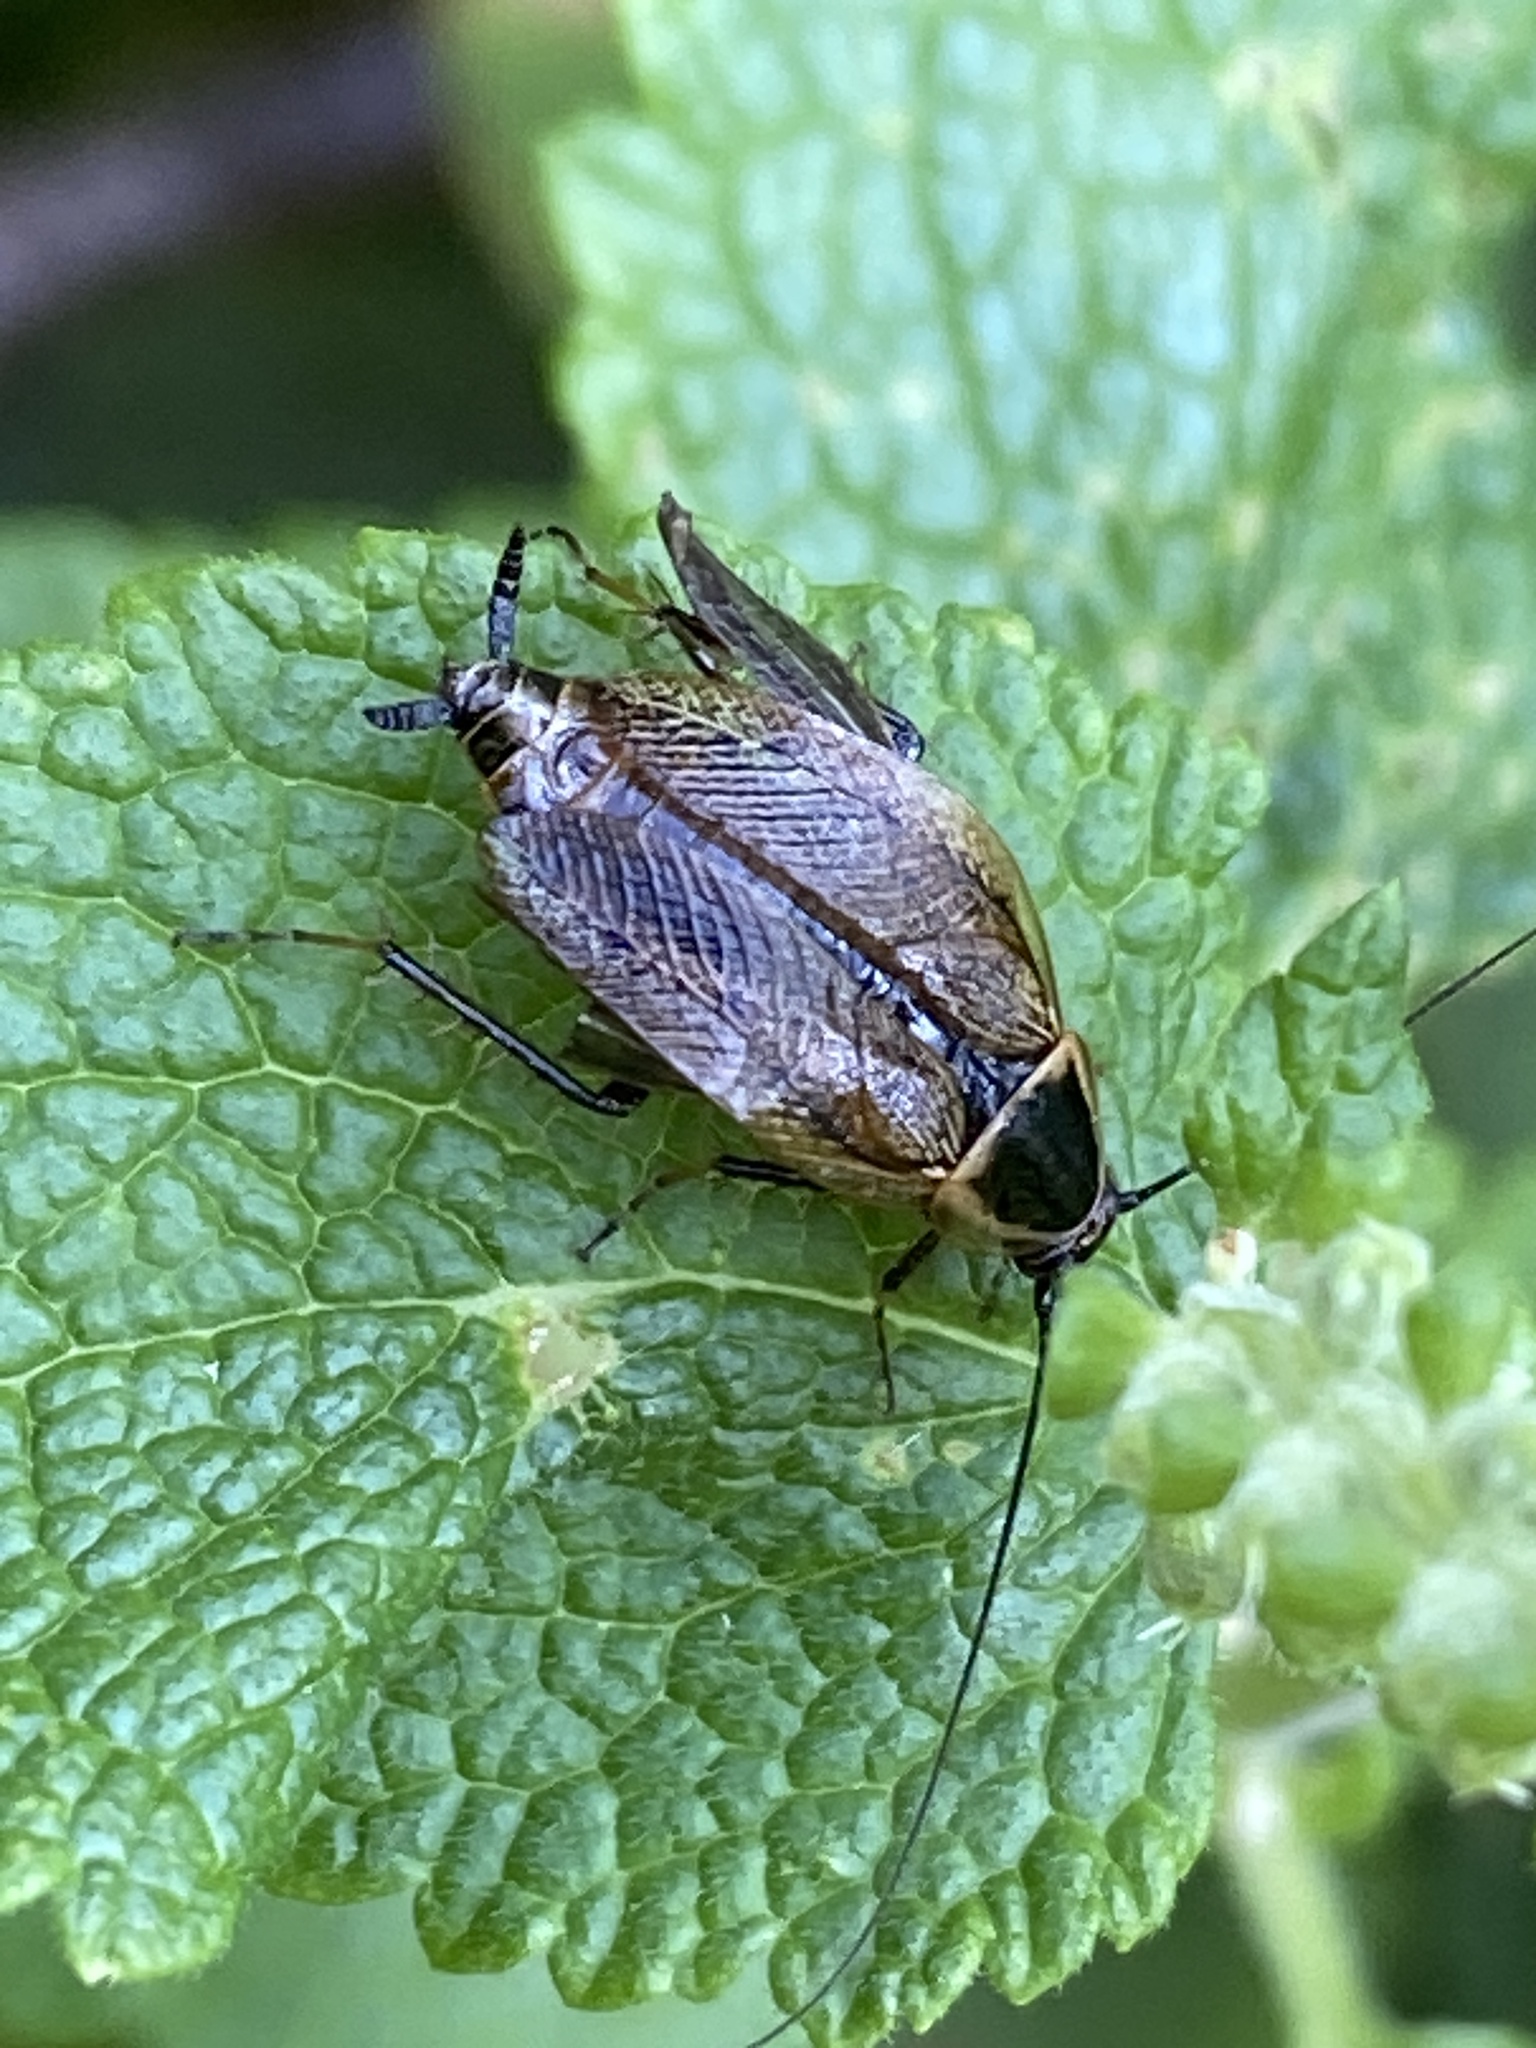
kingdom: Animalia
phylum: Arthropoda
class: Insecta
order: Blattodea
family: Ectobiidae
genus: Ectobius
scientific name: Ectobius sylvestris
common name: Forest cockroach
